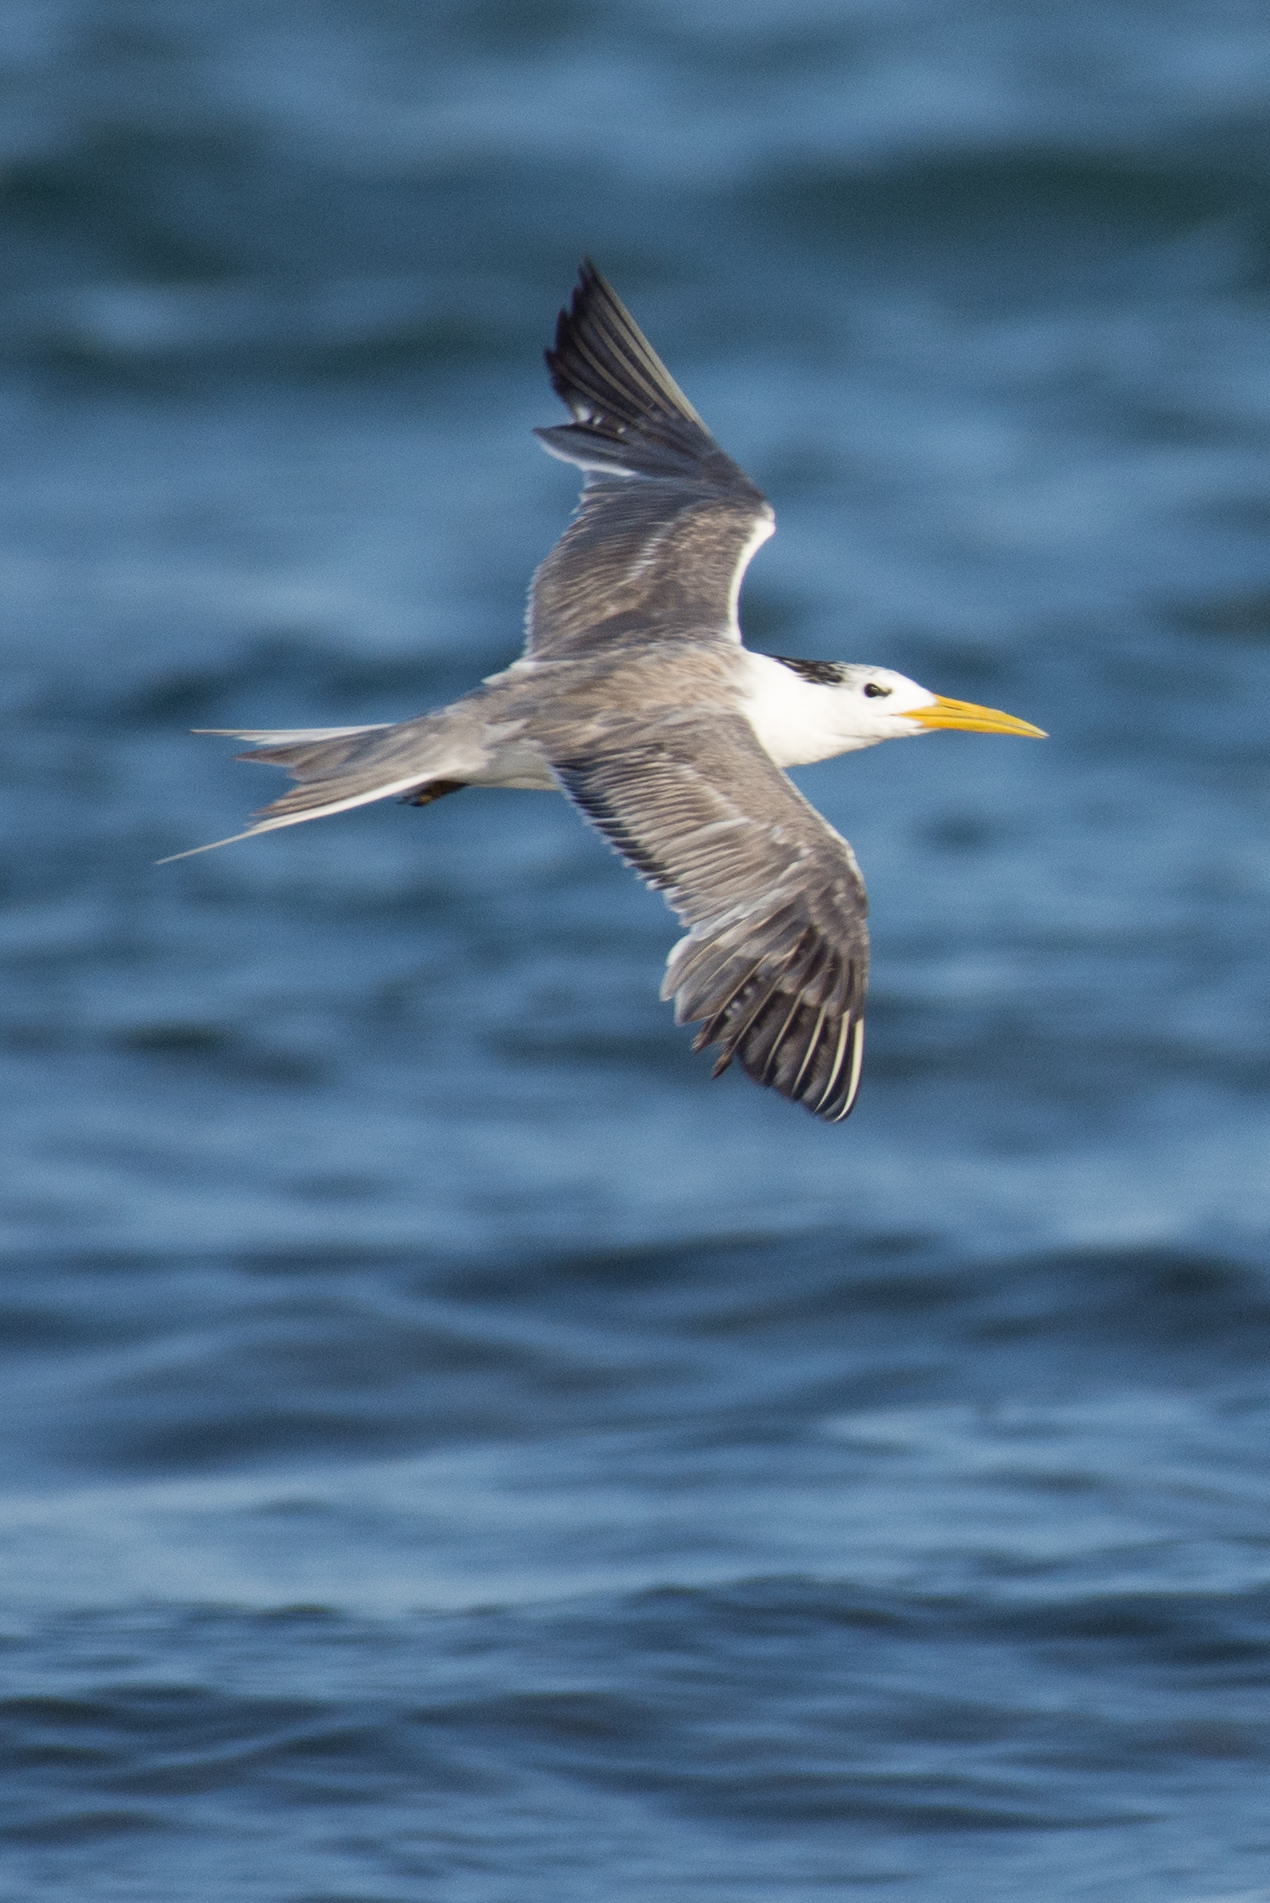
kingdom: Animalia
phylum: Chordata
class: Aves
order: Charadriiformes
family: Laridae
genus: Thalasseus
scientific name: Thalasseus bergii
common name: Greater crested tern
